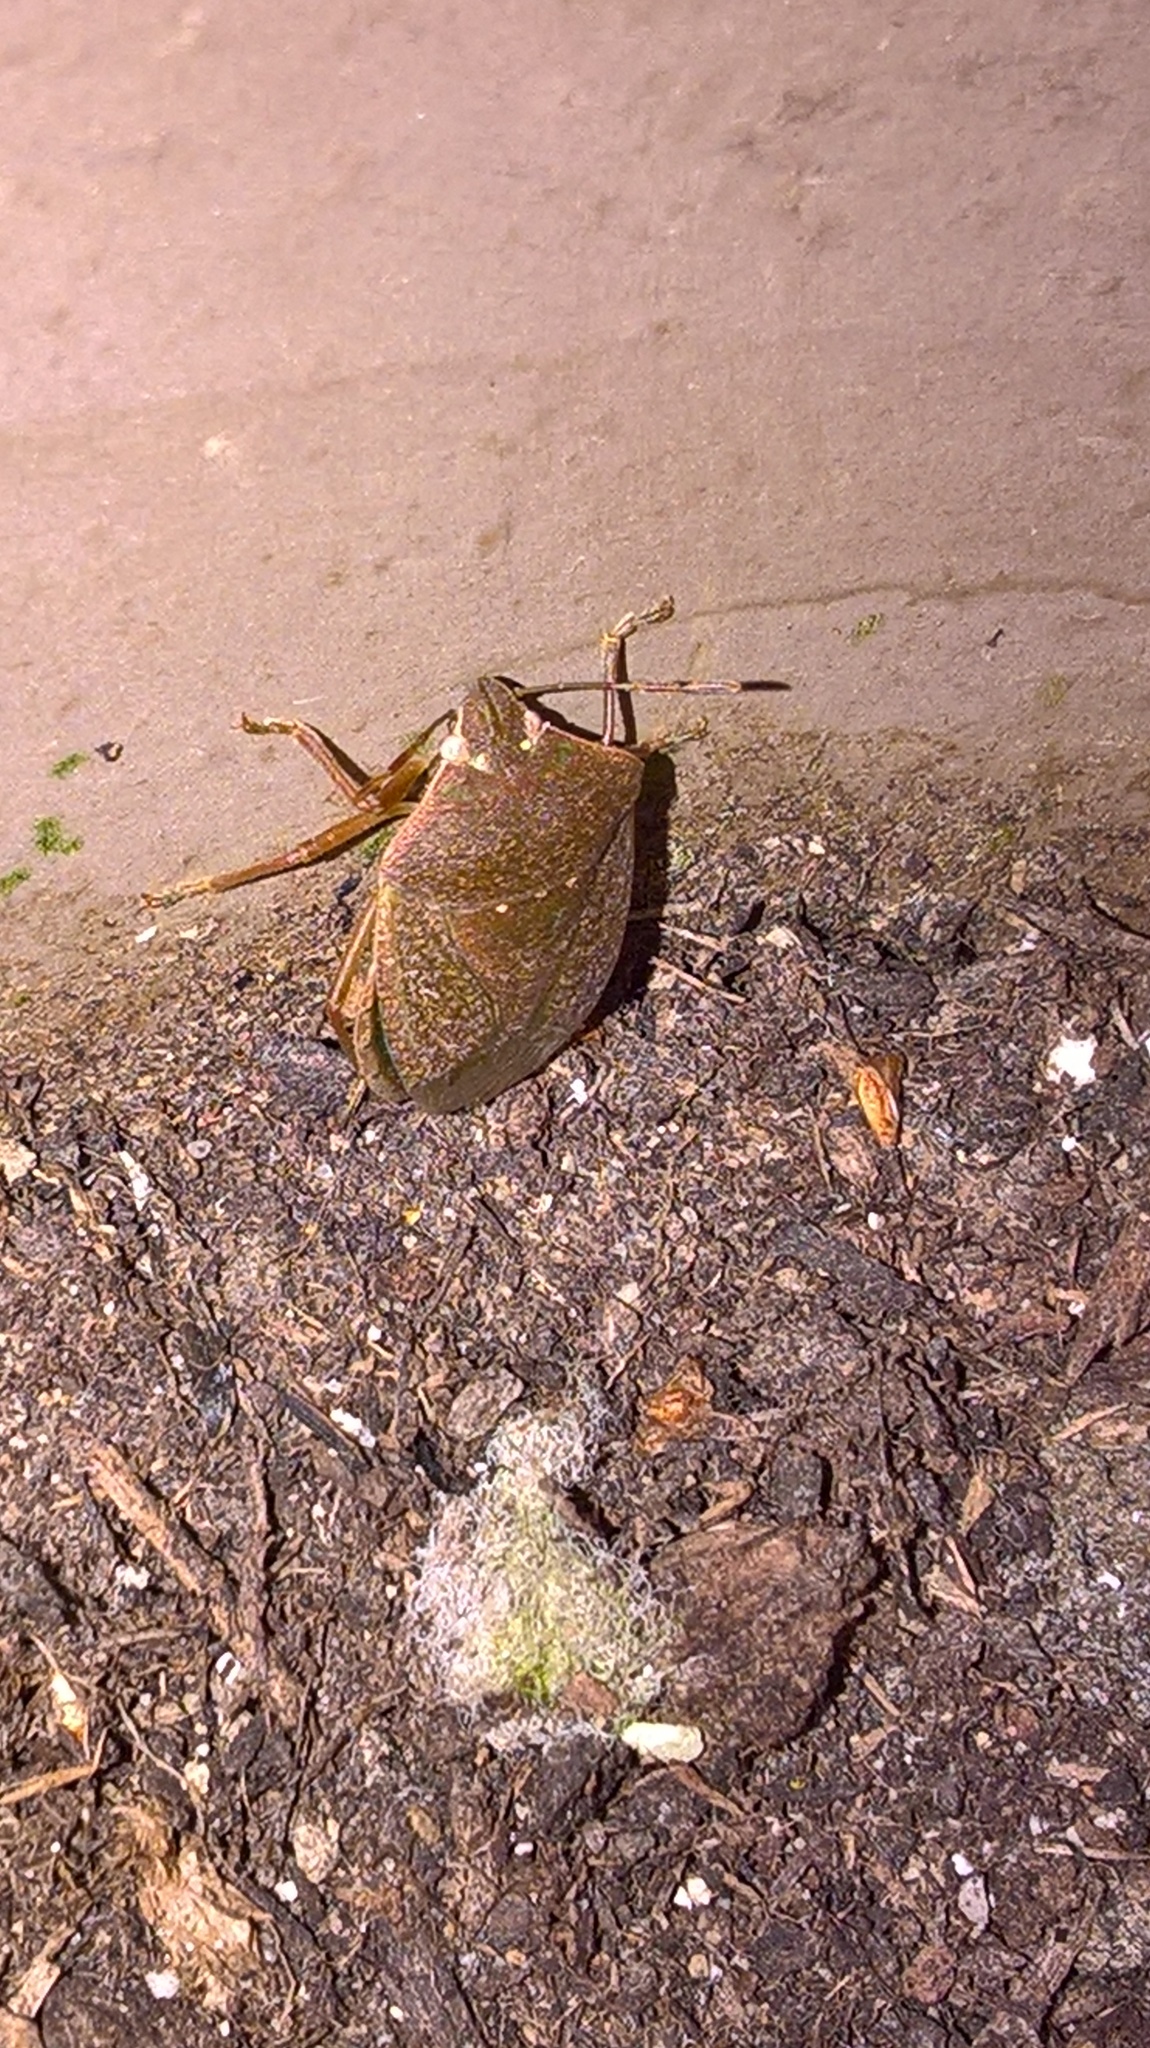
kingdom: Animalia
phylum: Arthropoda
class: Insecta
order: Hemiptera
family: Pentatomidae
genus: Nezara
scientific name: Nezara viridula
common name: Southern green stink bug
